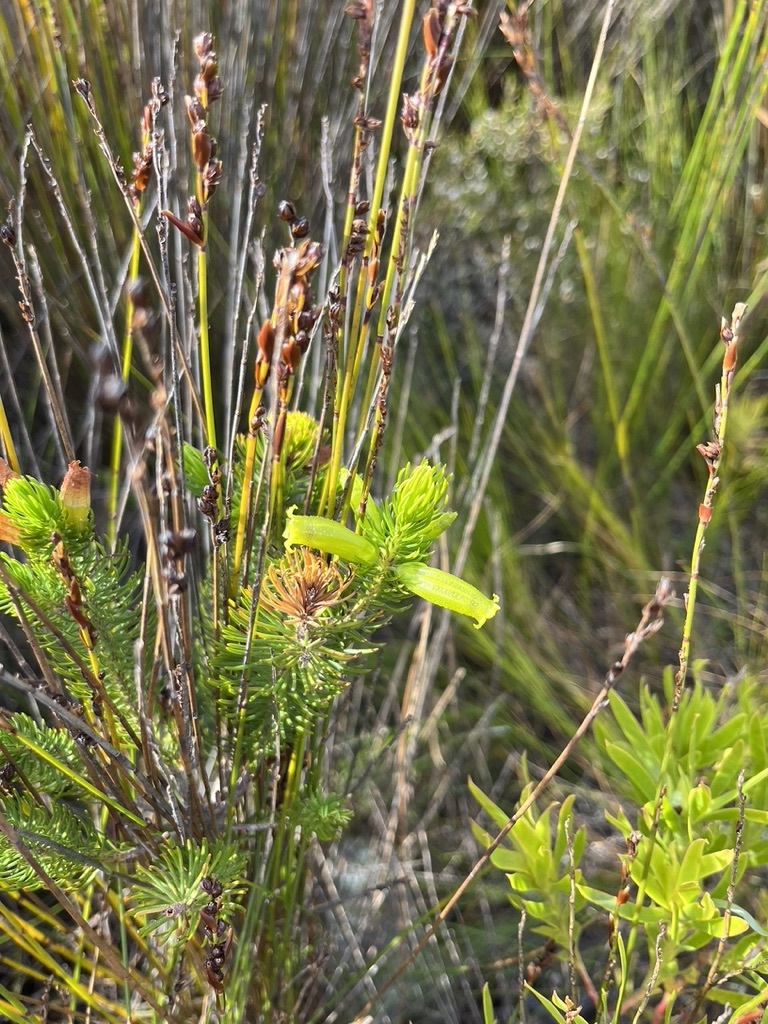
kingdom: Plantae
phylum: Tracheophyta
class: Magnoliopsida
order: Ericales
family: Ericaceae
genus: Erica
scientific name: Erica viscaria
